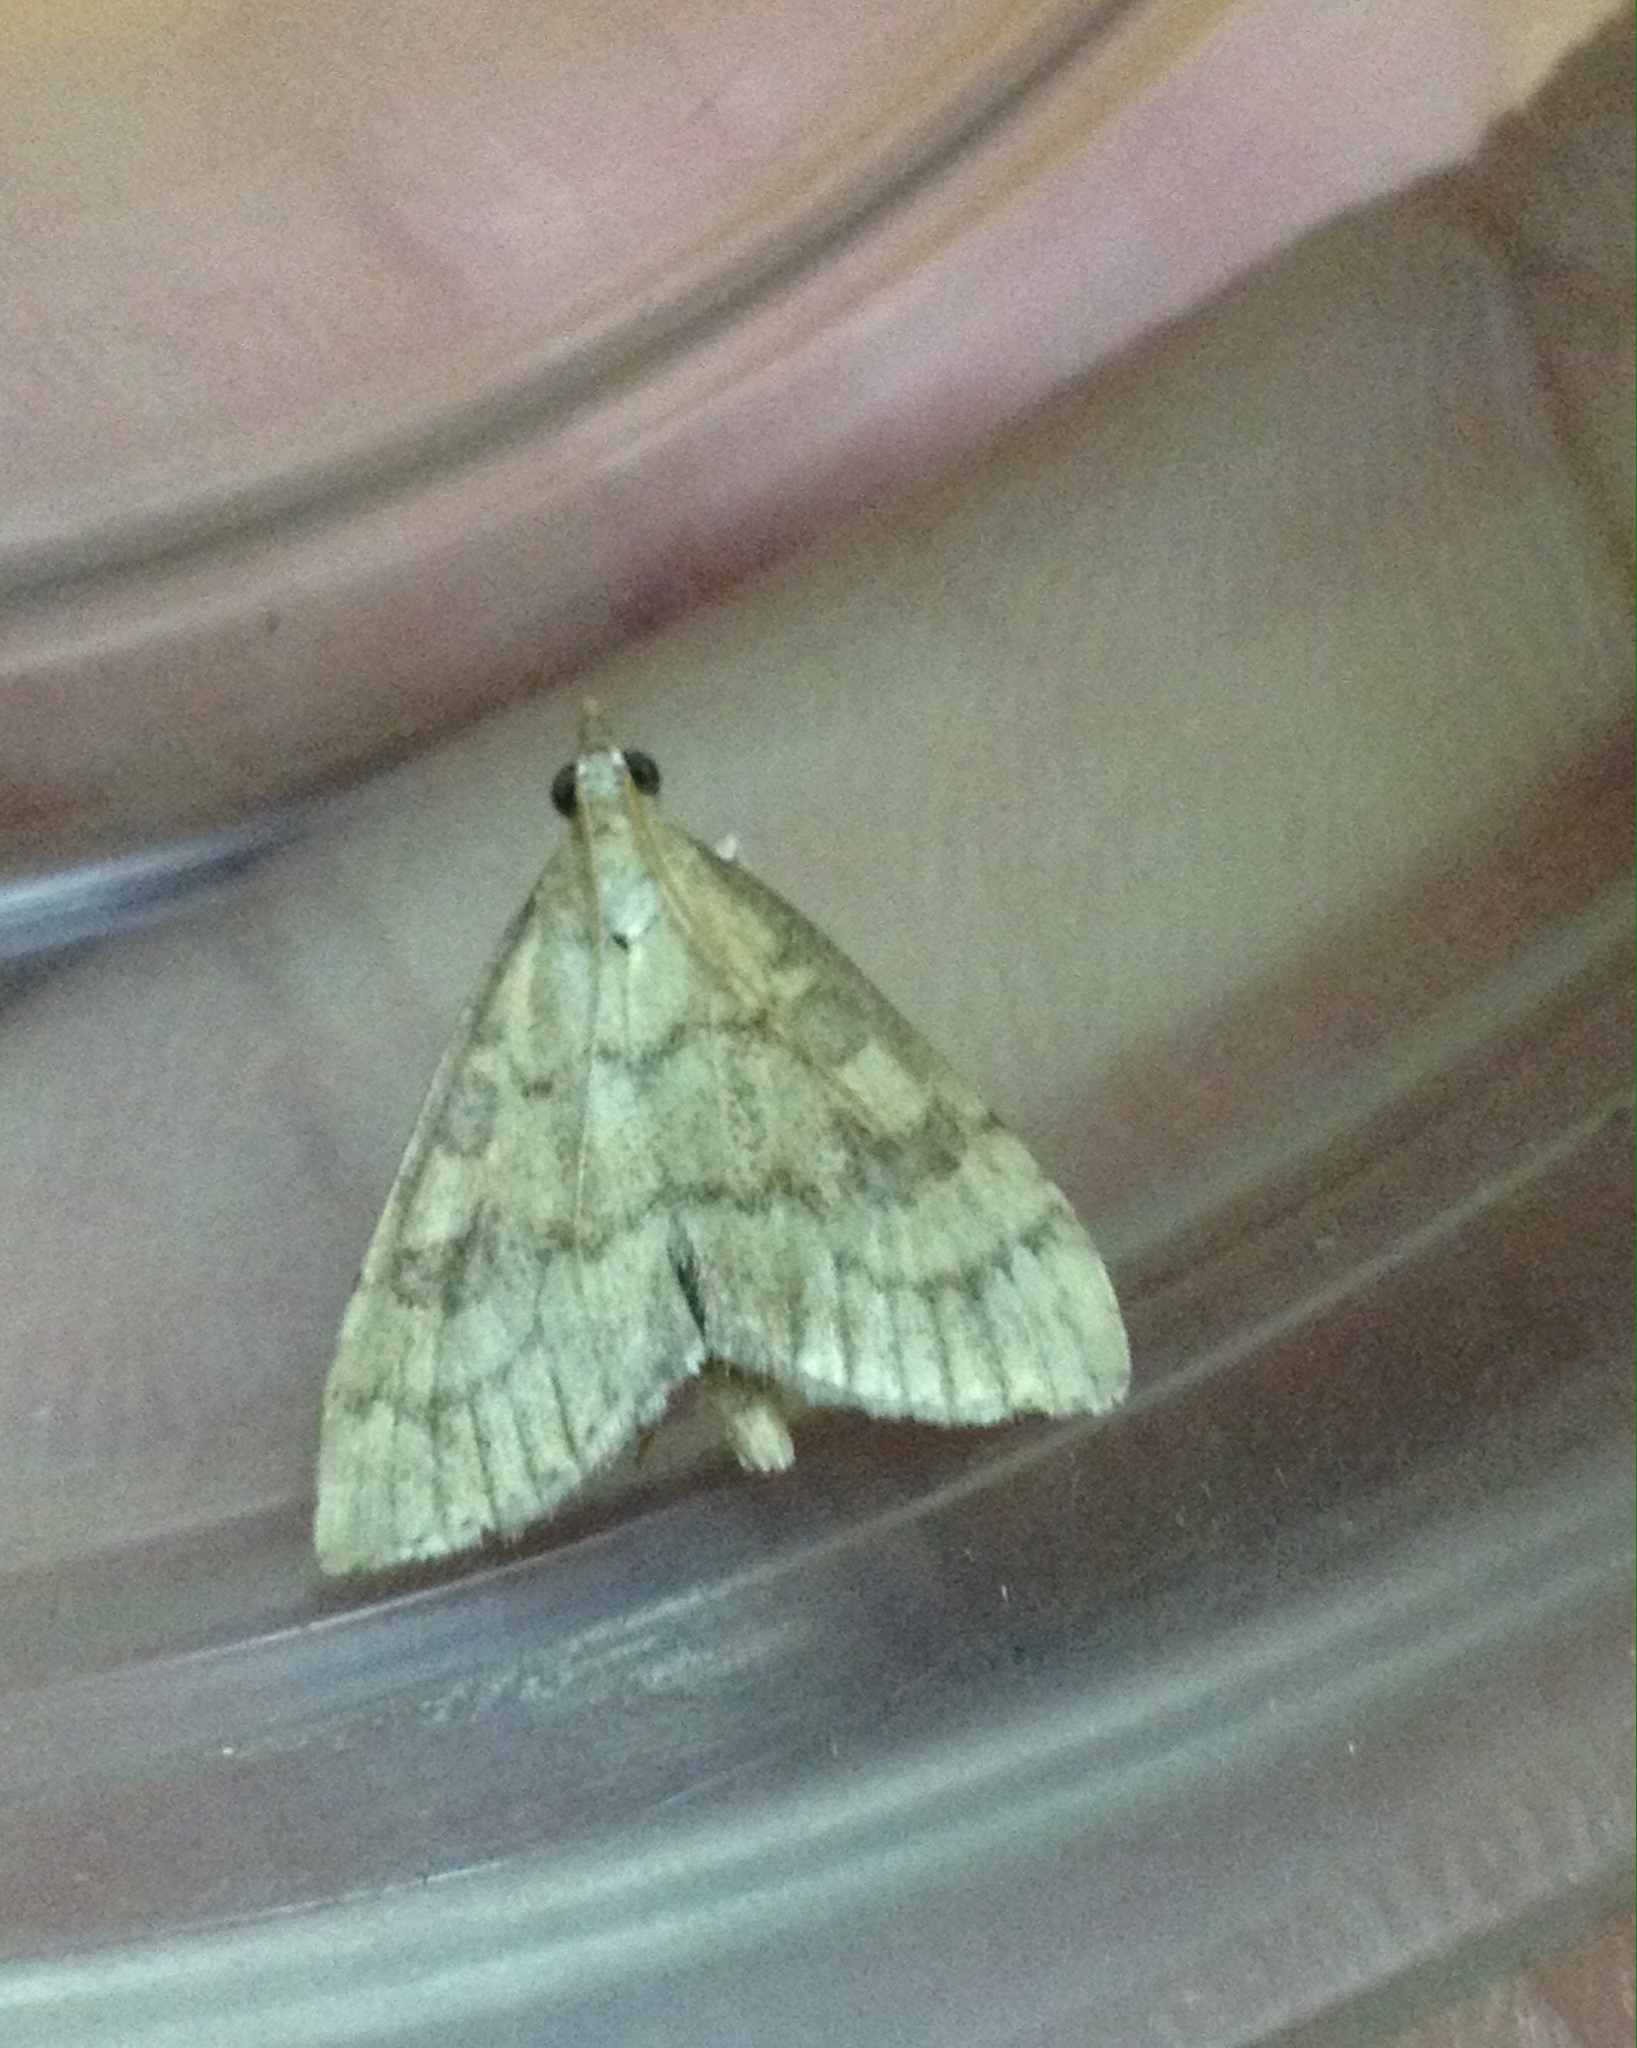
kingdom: Animalia
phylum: Arthropoda
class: Insecta
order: Lepidoptera
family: Crambidae
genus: Udea
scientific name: Udea fulvalis
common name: Fulvous pearl
